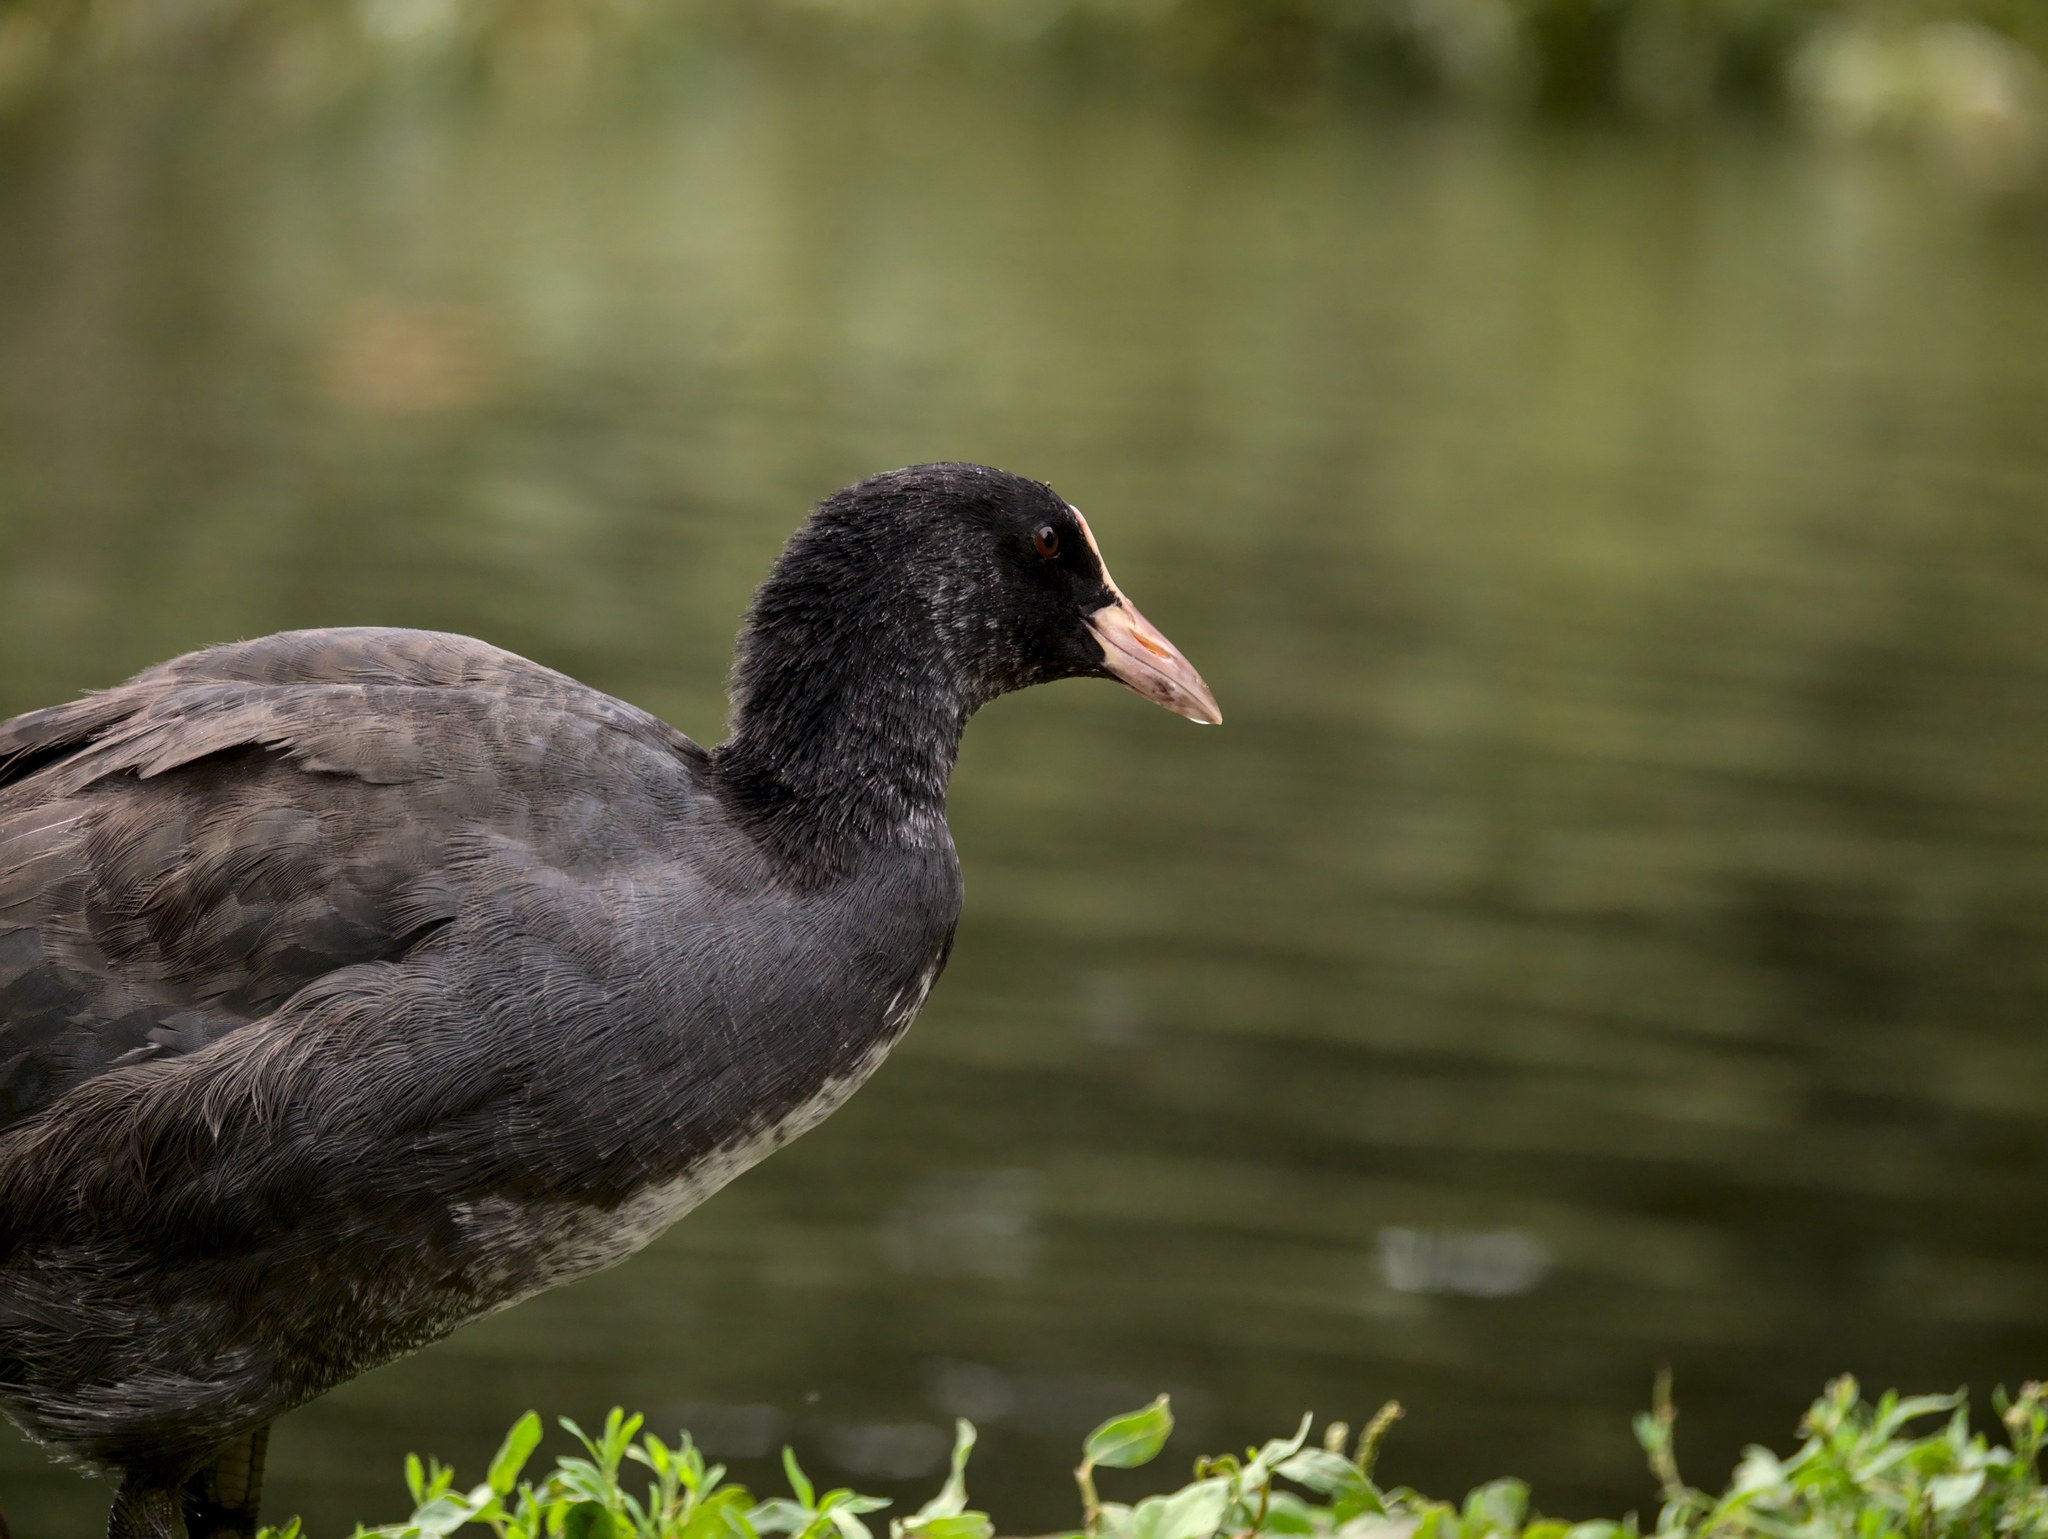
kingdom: Animalia
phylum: Chordata
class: Aves
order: Gruiformes
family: Rallidae
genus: Fulica
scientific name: Fulica atra
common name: Eurasian coot
